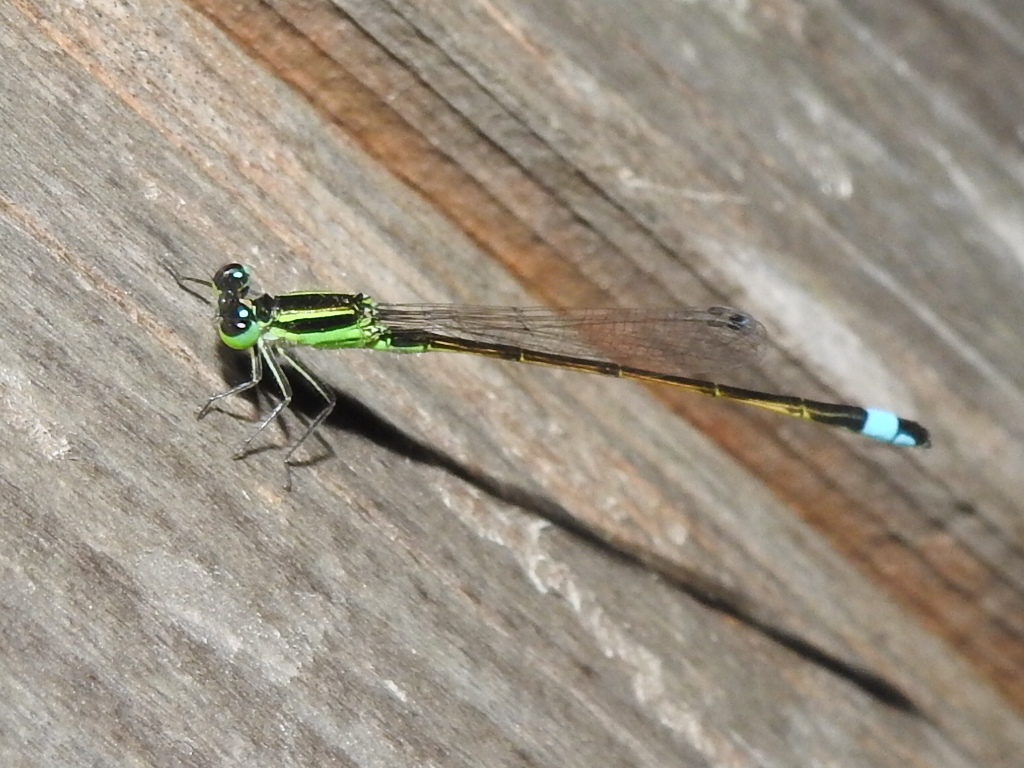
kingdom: Animalia
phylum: Arthropoda
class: Insecta
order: Odonata
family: Coenagrionidae
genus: Ischnura
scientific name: Ischnura ramburii
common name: Rambur's forktail
